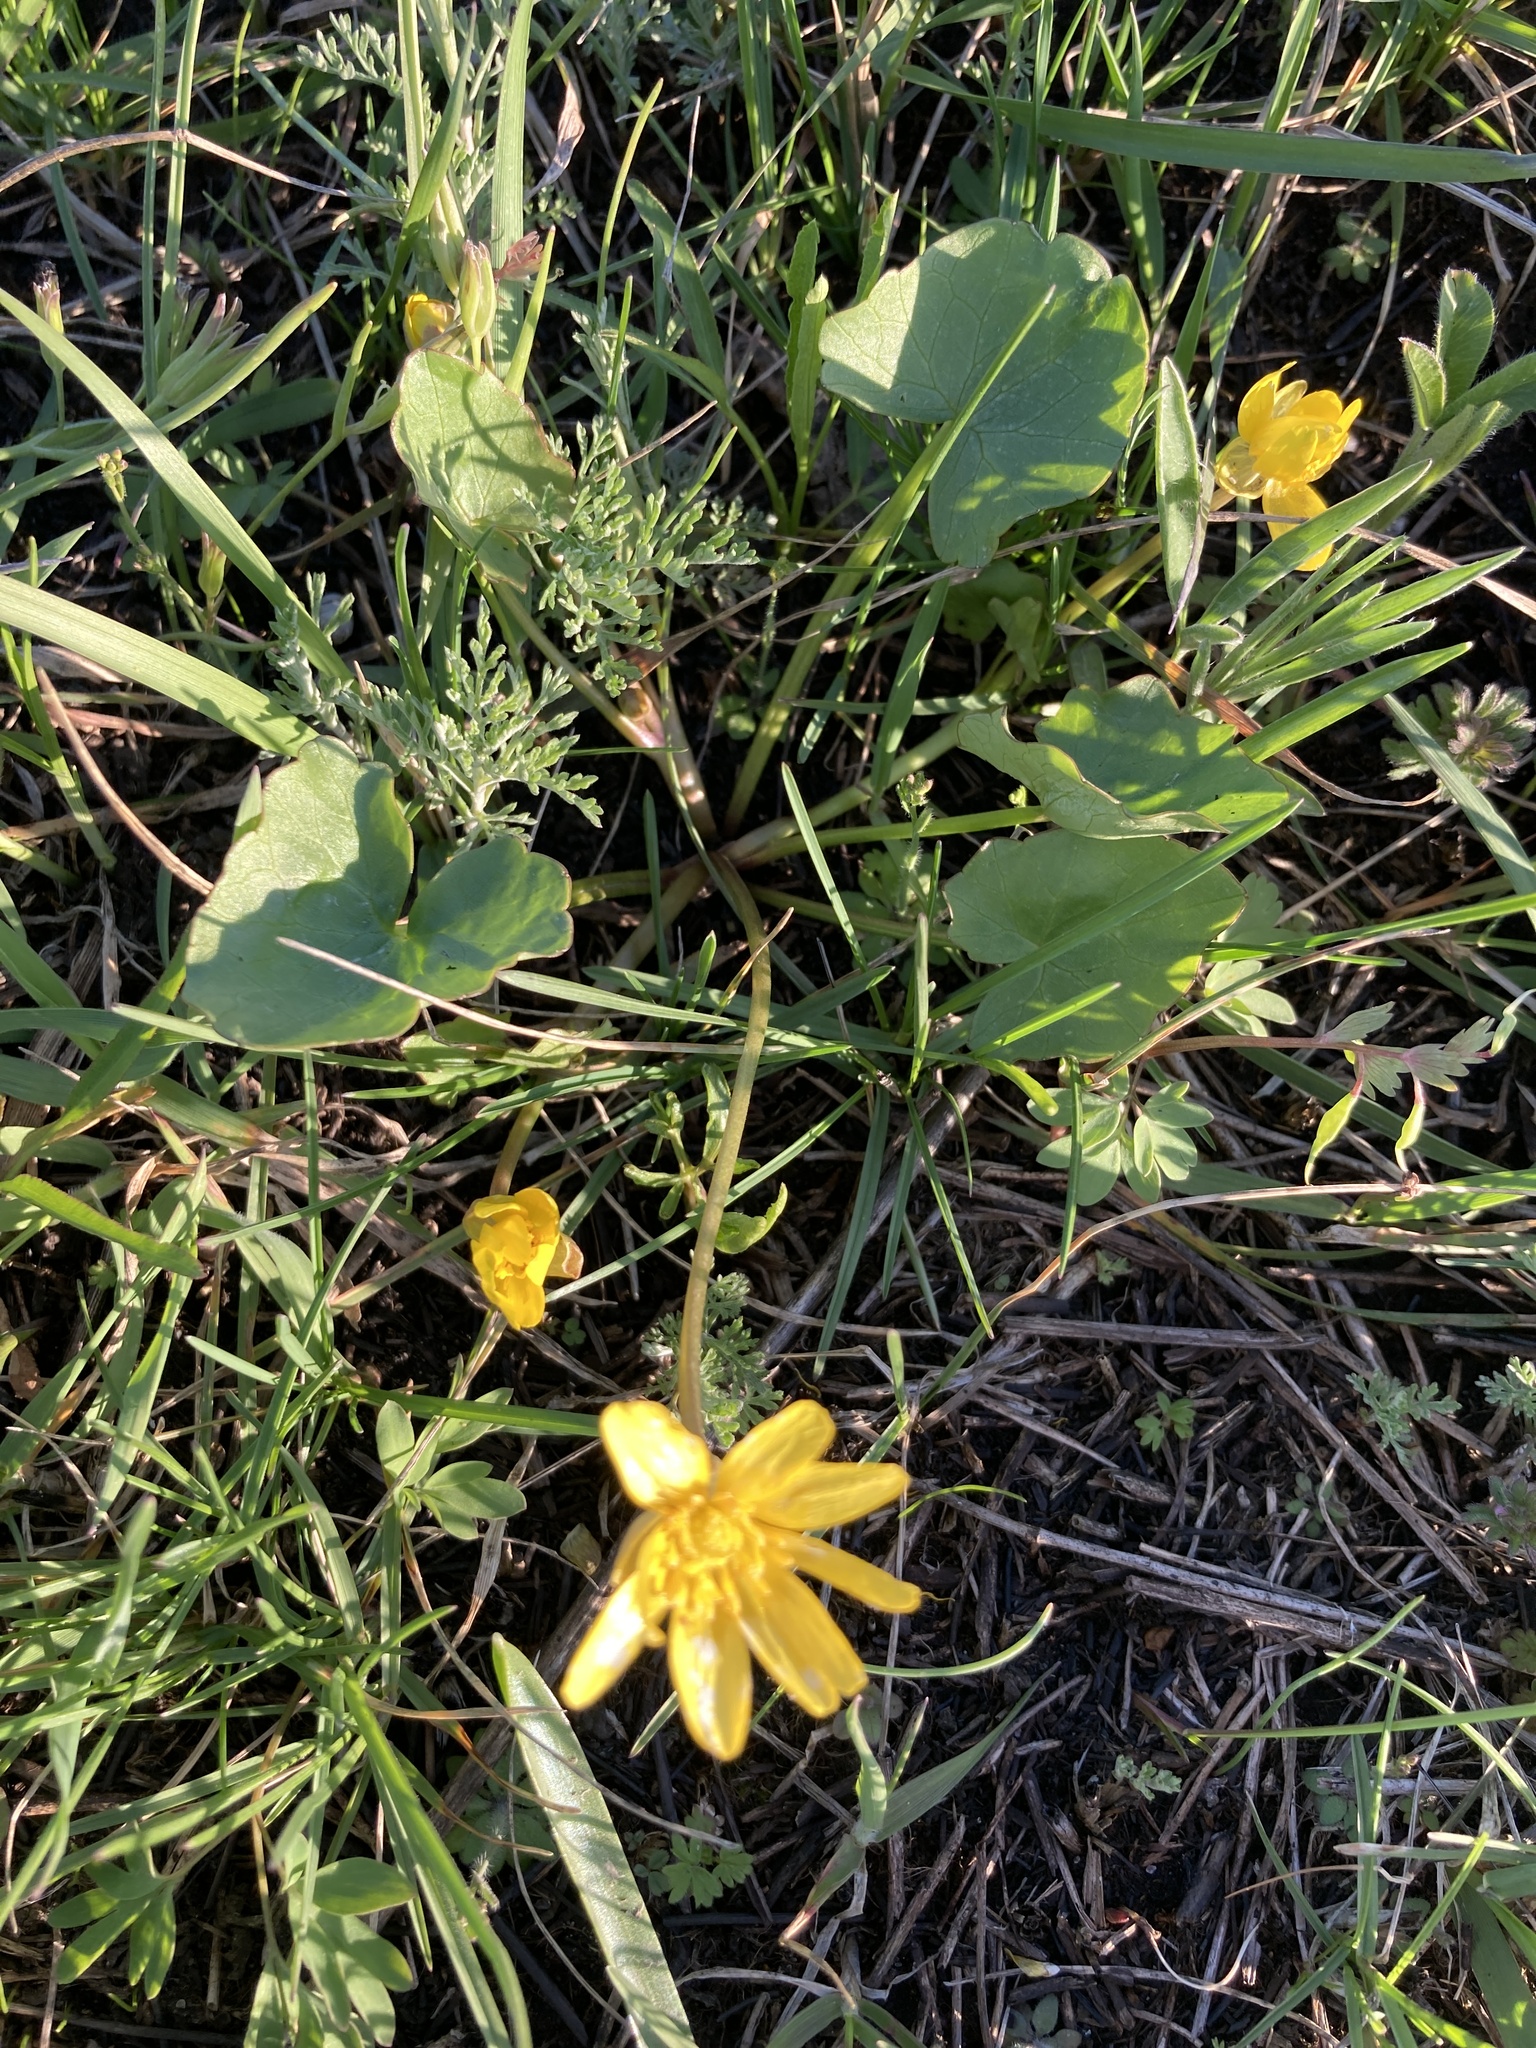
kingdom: Plantae
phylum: Tracheophyta
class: Magnoliopsida
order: Ranunculales
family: Ranunculaceae
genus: Ficaria
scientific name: Ficaria verna
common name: Lesser celandine
